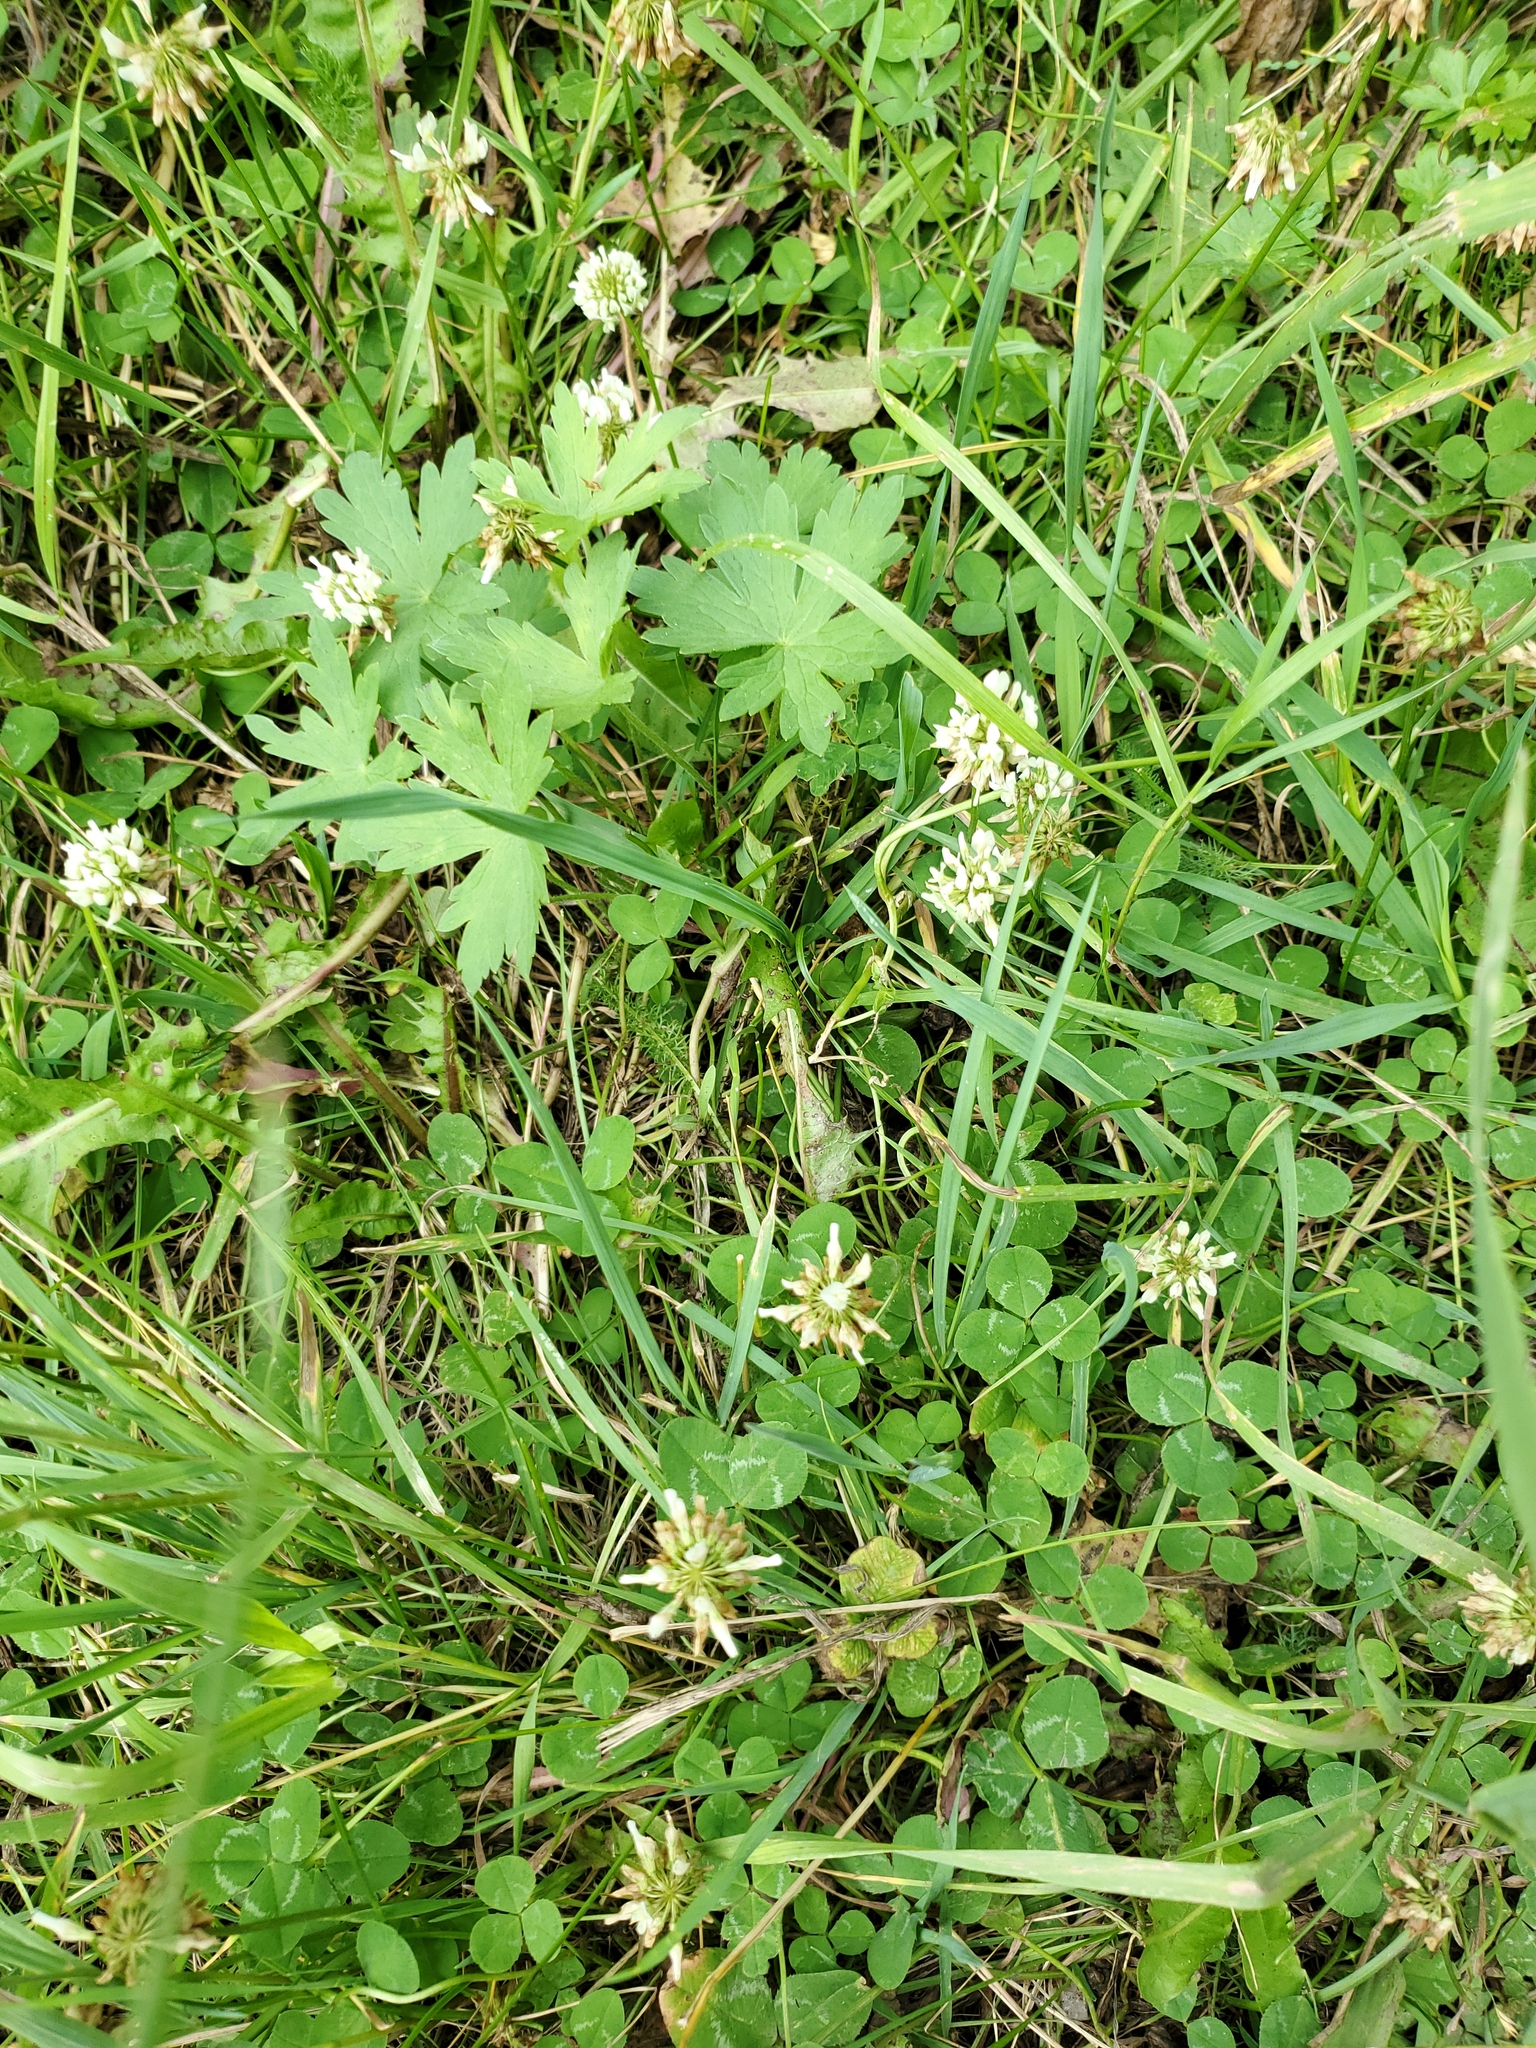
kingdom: Plantae
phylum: Tracheophyta
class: Magnoliopsida
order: Fabales
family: Fabaceae
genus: Trifolium
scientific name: Trifolium repens
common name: White clover
